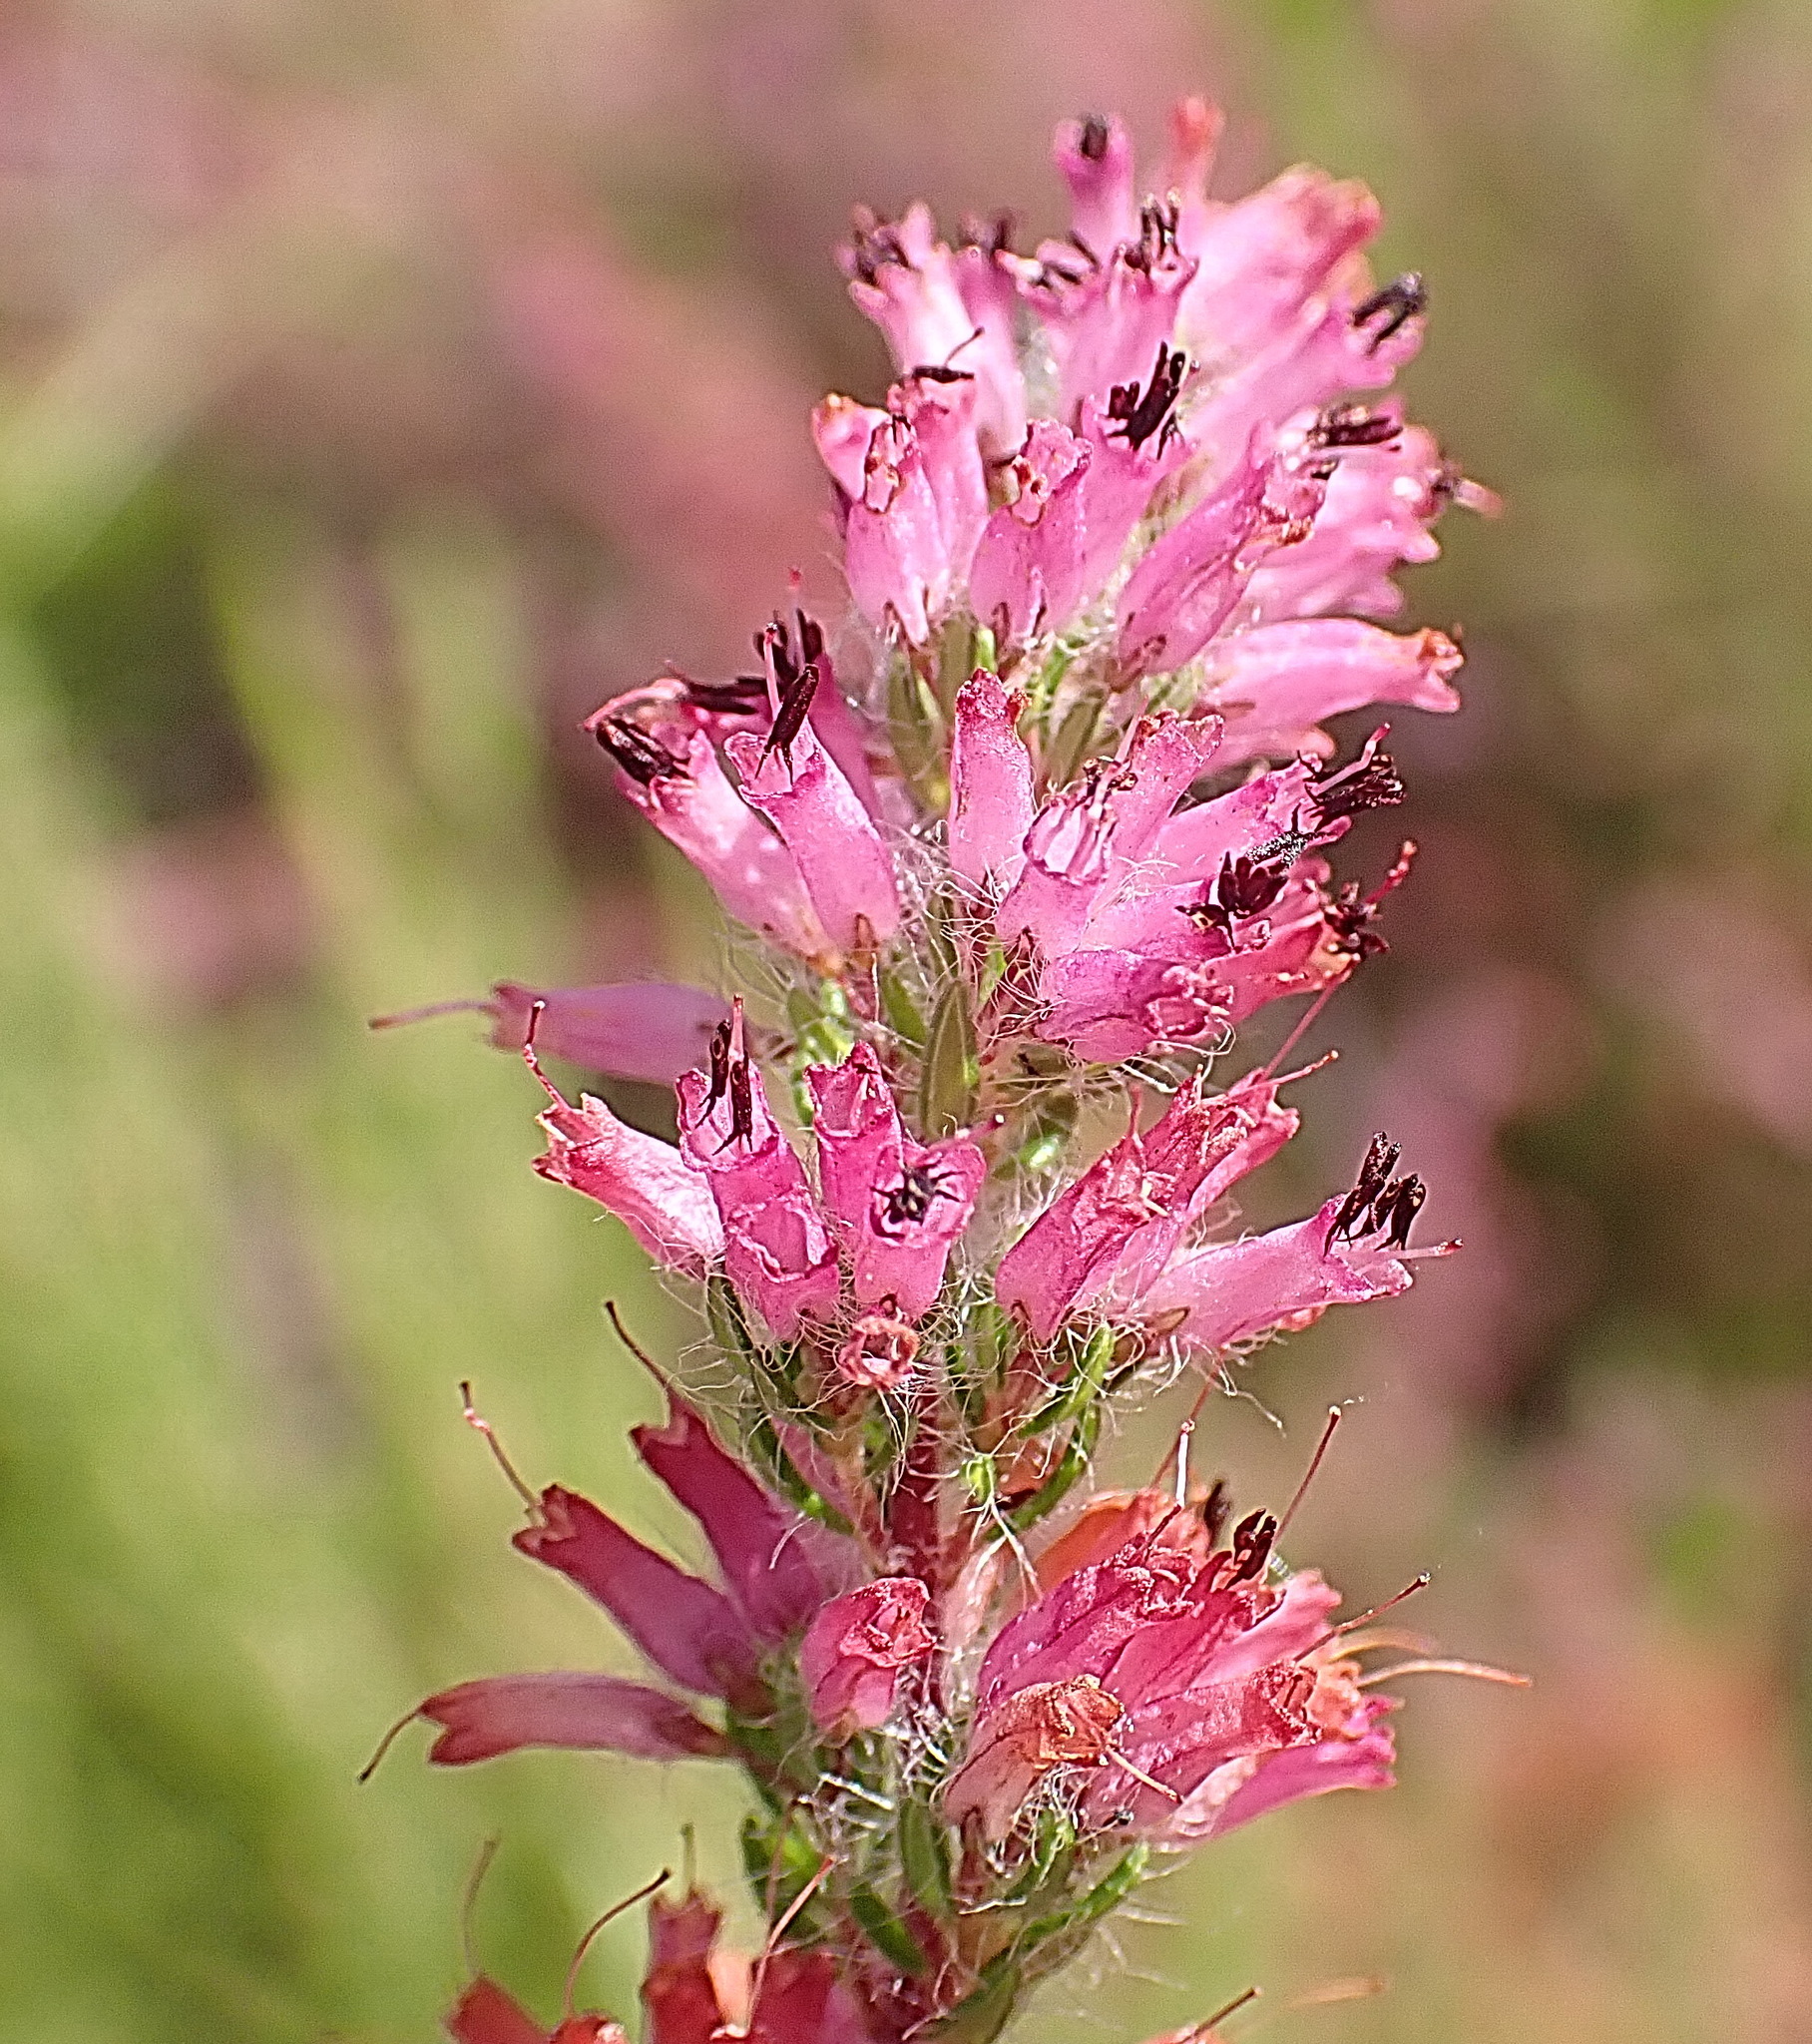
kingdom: Plantae
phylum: Tracheophyta
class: Magnoliopsida
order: Ericales
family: Ericaceae
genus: Erica
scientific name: Erica longimontana
